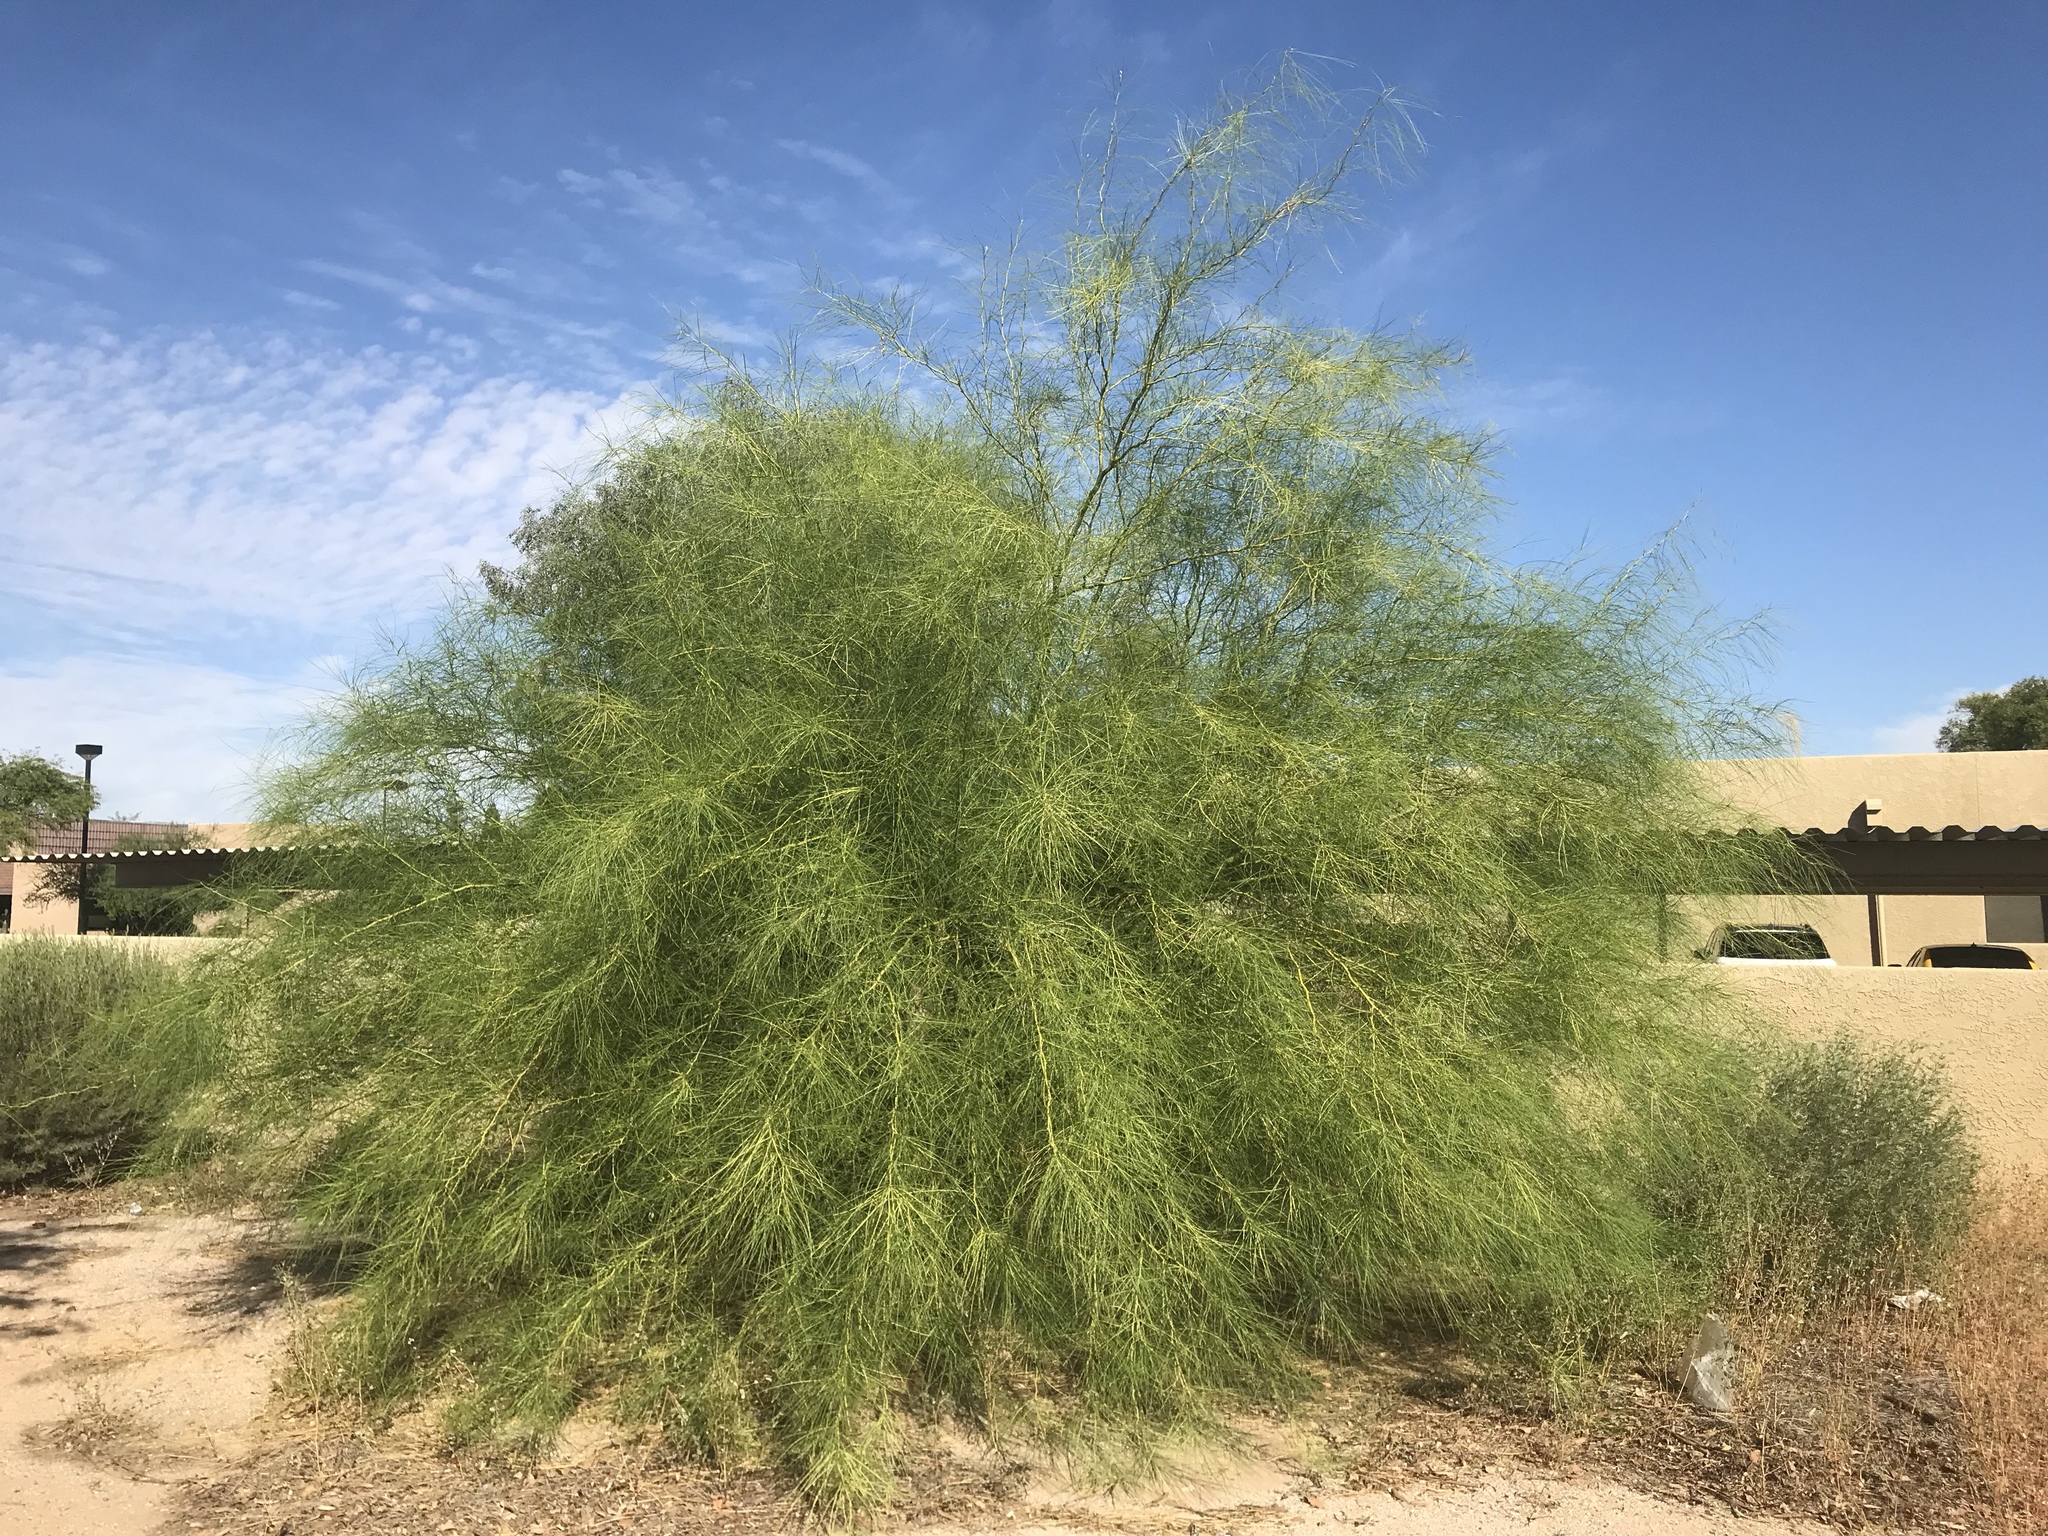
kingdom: Plantae
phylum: Tracheophyta
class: Magnoliopsida
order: Fabales
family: Fabaceae
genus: Parkinsonia
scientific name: Parkinsonia aculeata
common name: Jerusalem thorn
